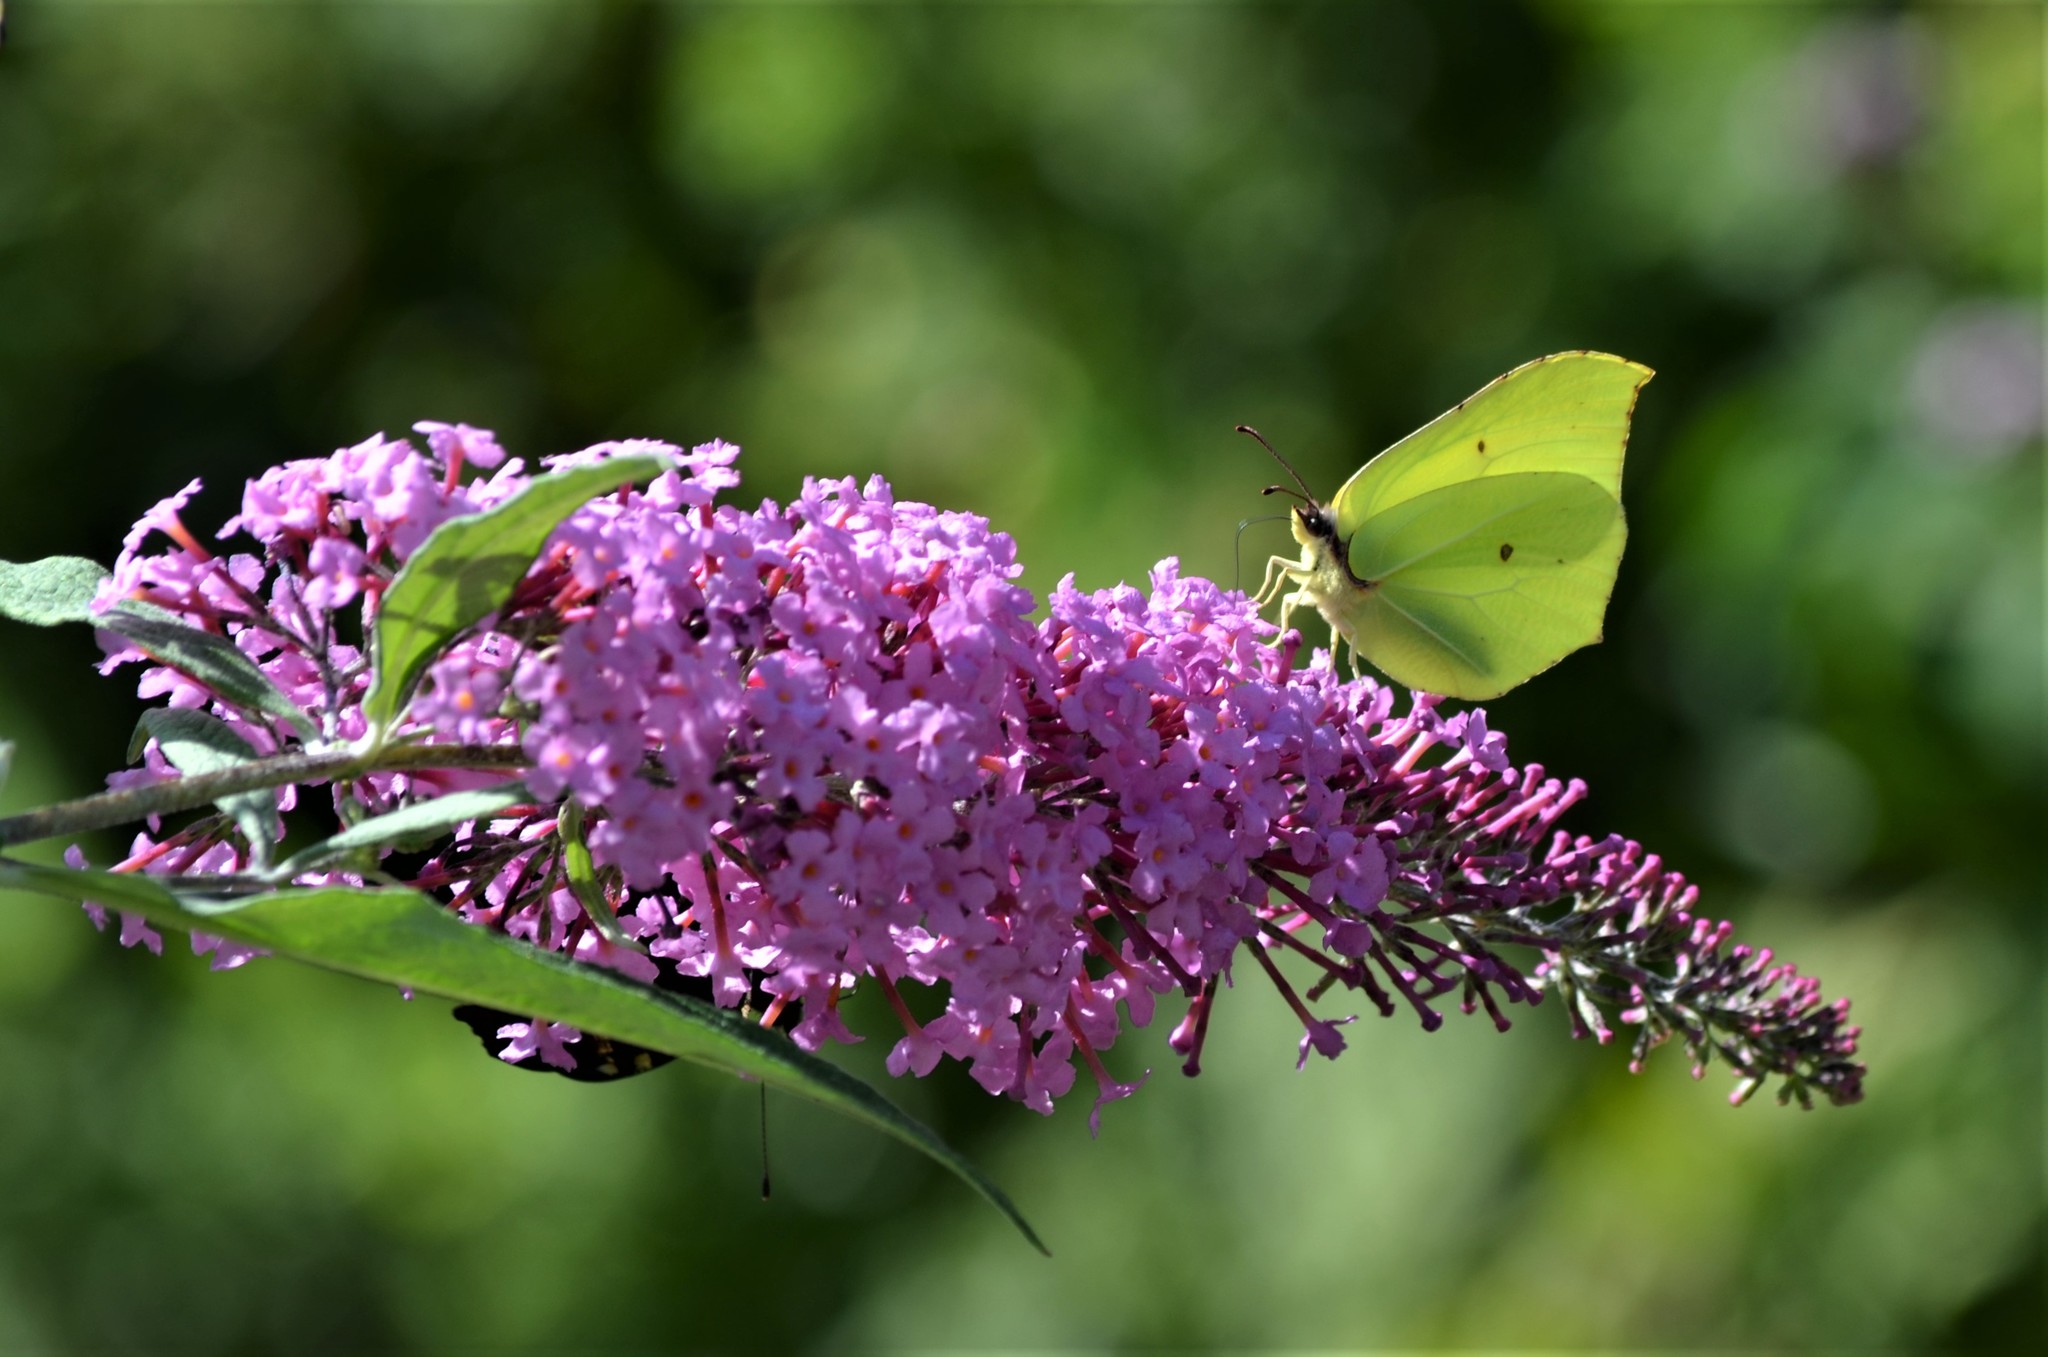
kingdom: Animalia
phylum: Arthropoda
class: Insecta
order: Lepidoptera
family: Pieridae
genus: Gonepteryx
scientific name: Gonepteryx rhamni
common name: Brimstone
